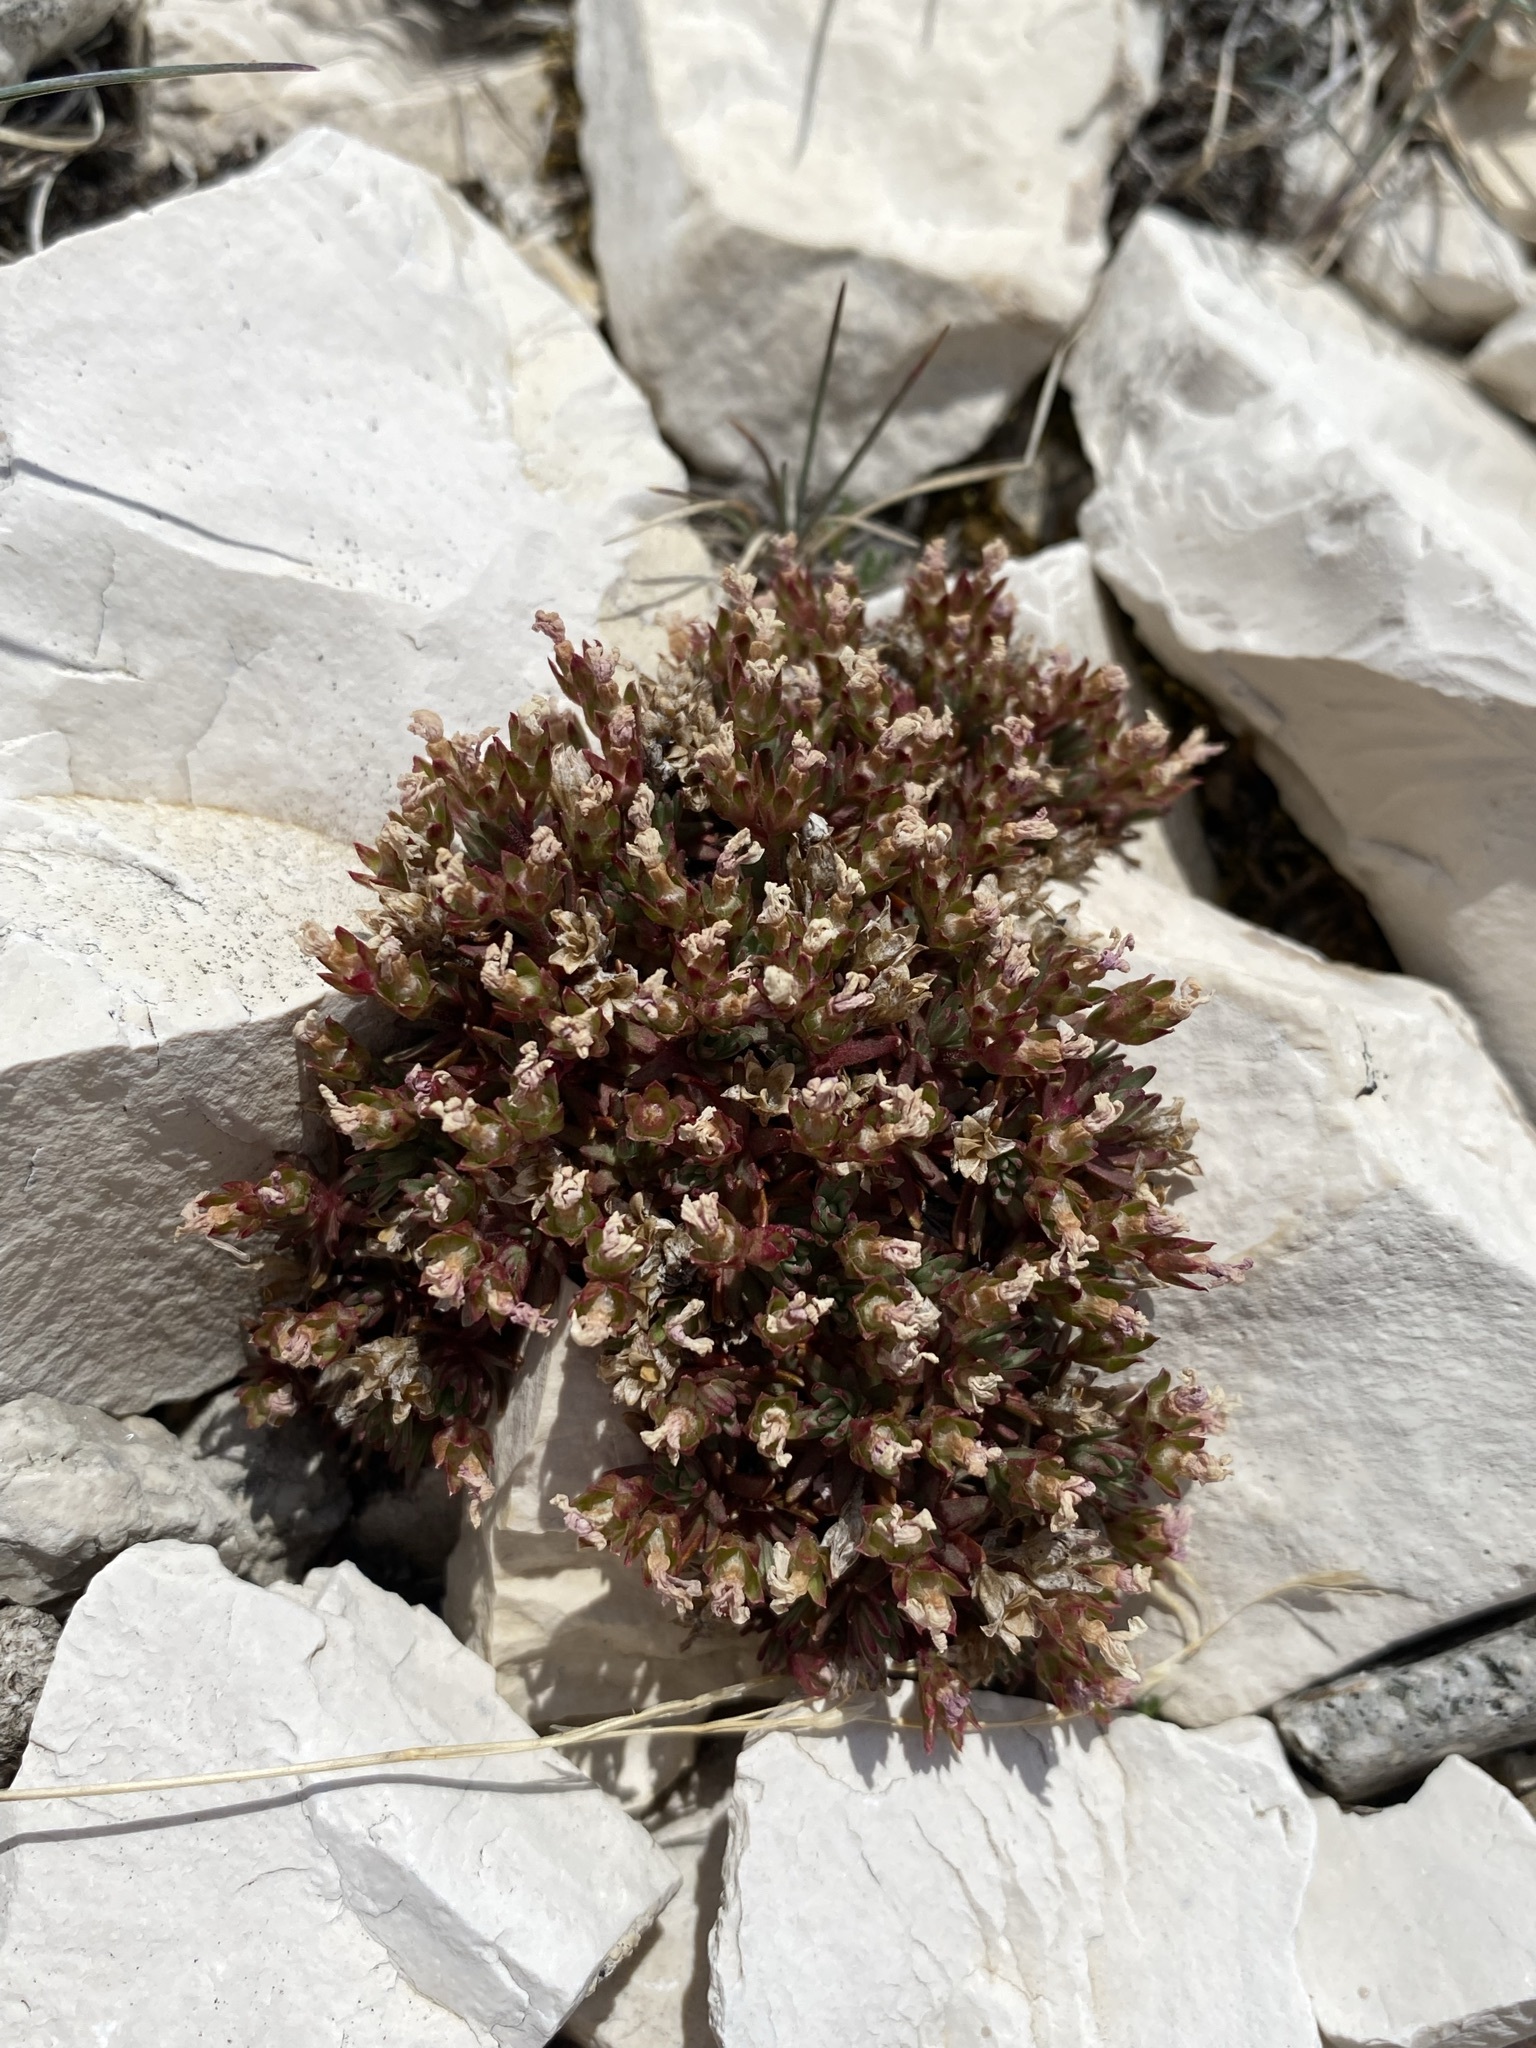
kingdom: Plantae
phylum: Tracheophyta
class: Magnoliopsida
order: Ericales
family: Primulaceae
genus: Androsace
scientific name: Androsace montana
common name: Rocky mountain dwarf-primrose
